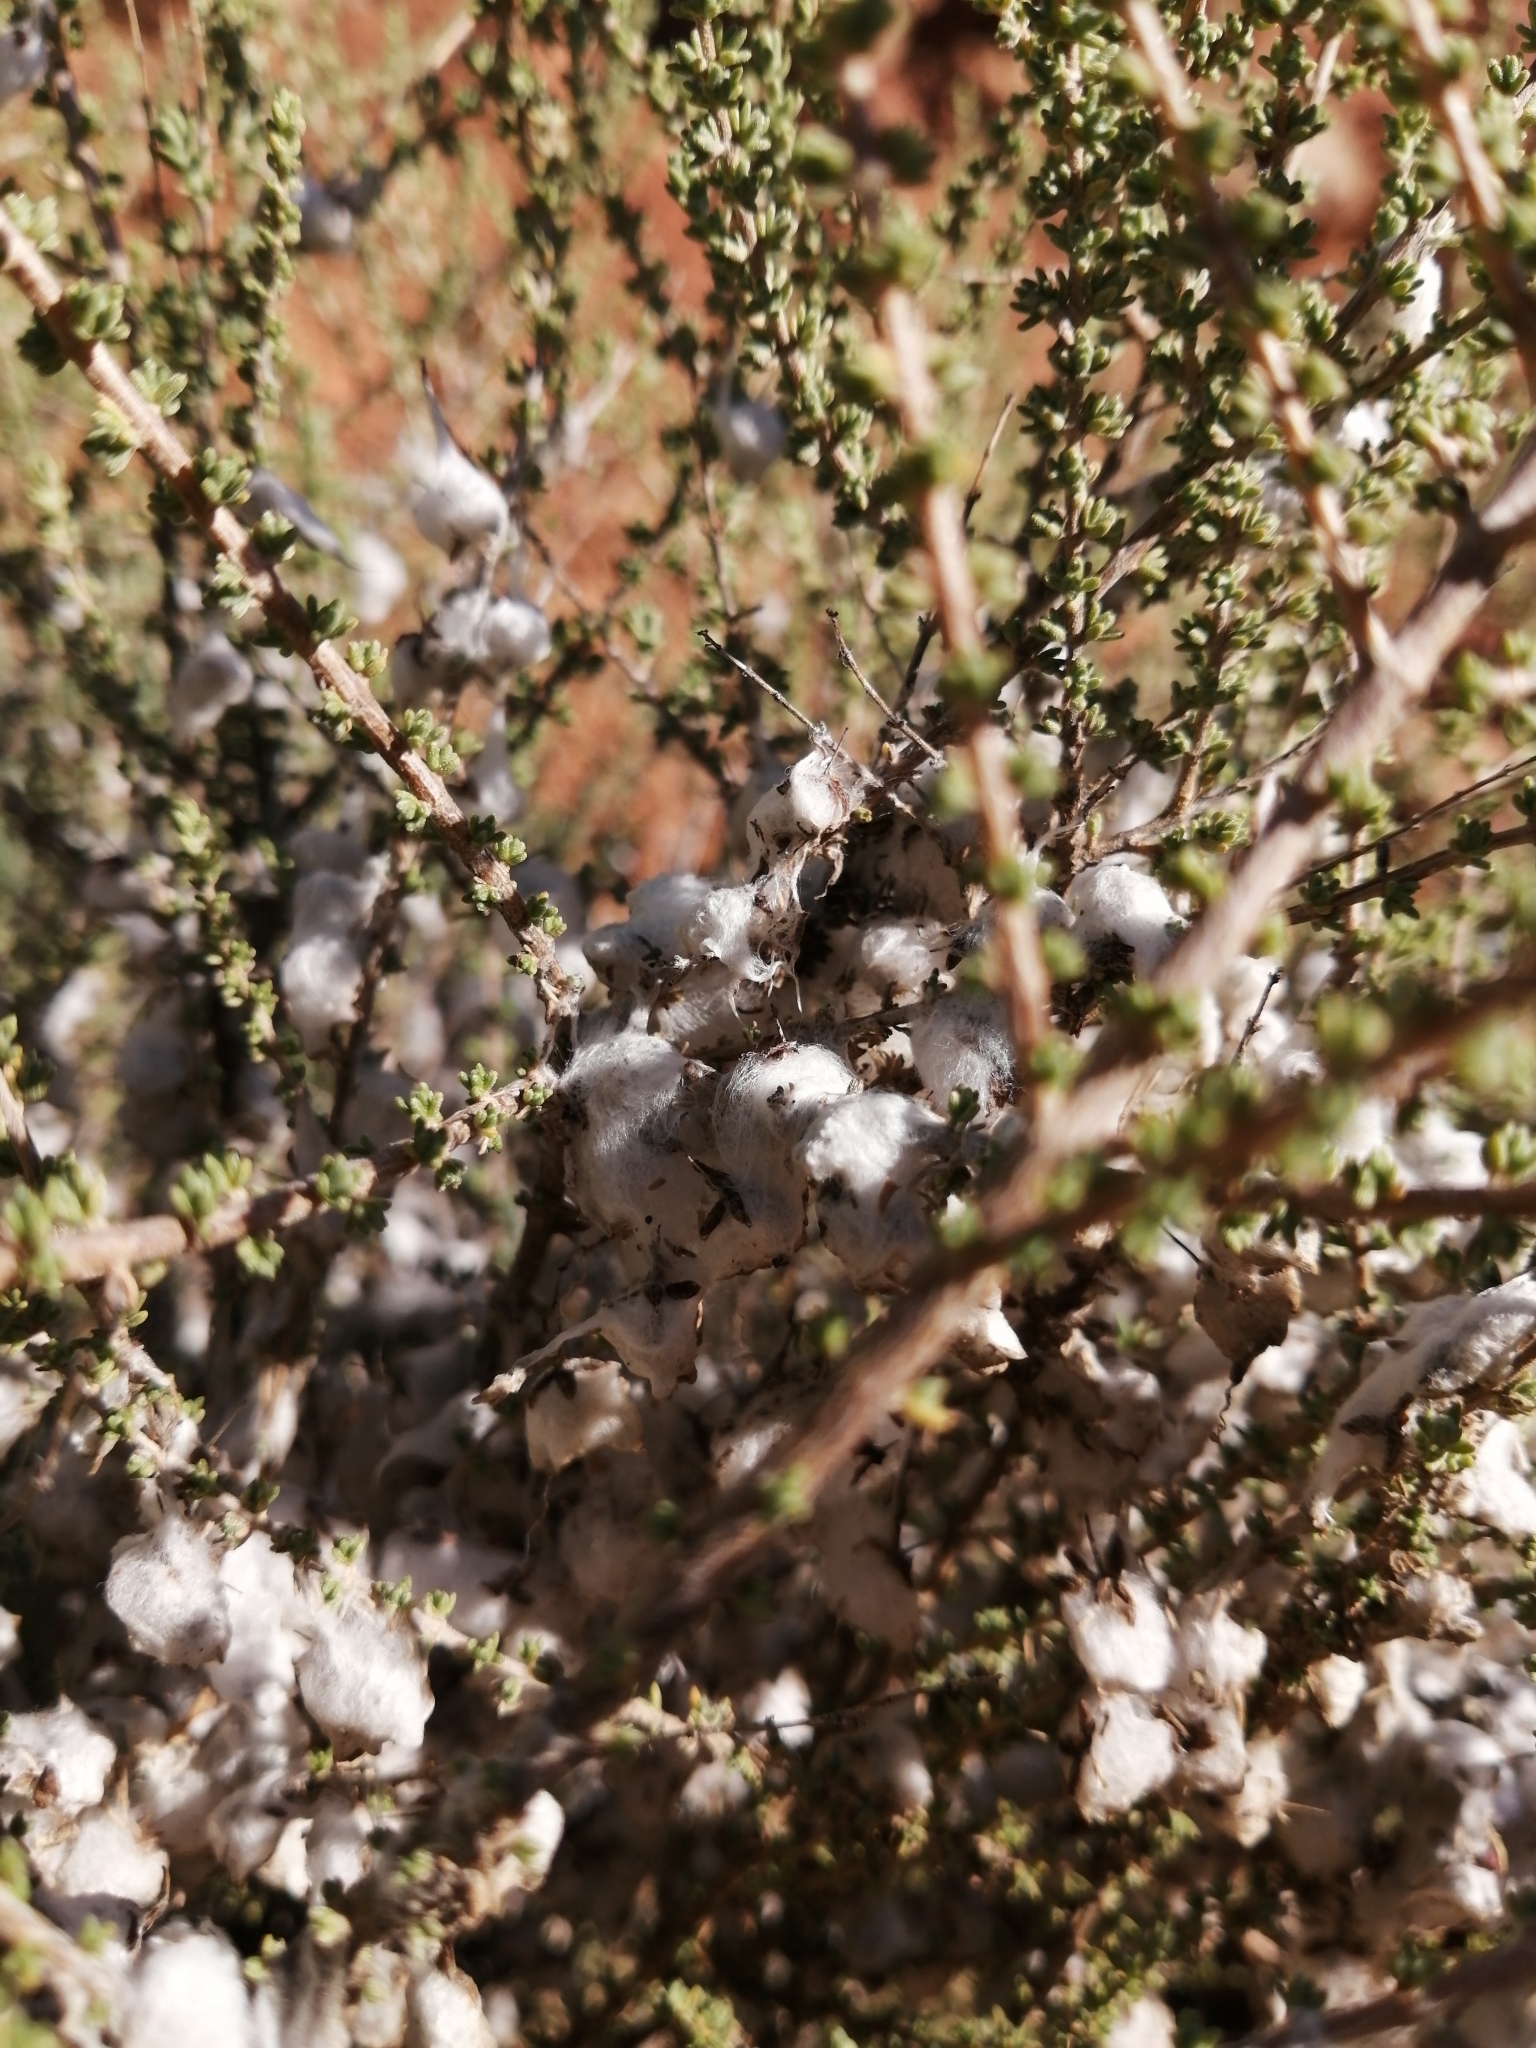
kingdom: Plantae
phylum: Tracheophyta
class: Magnoliopsida
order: Asterales
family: Asteraceae
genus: Eriocephalus
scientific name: Eriocephalus ericoides
